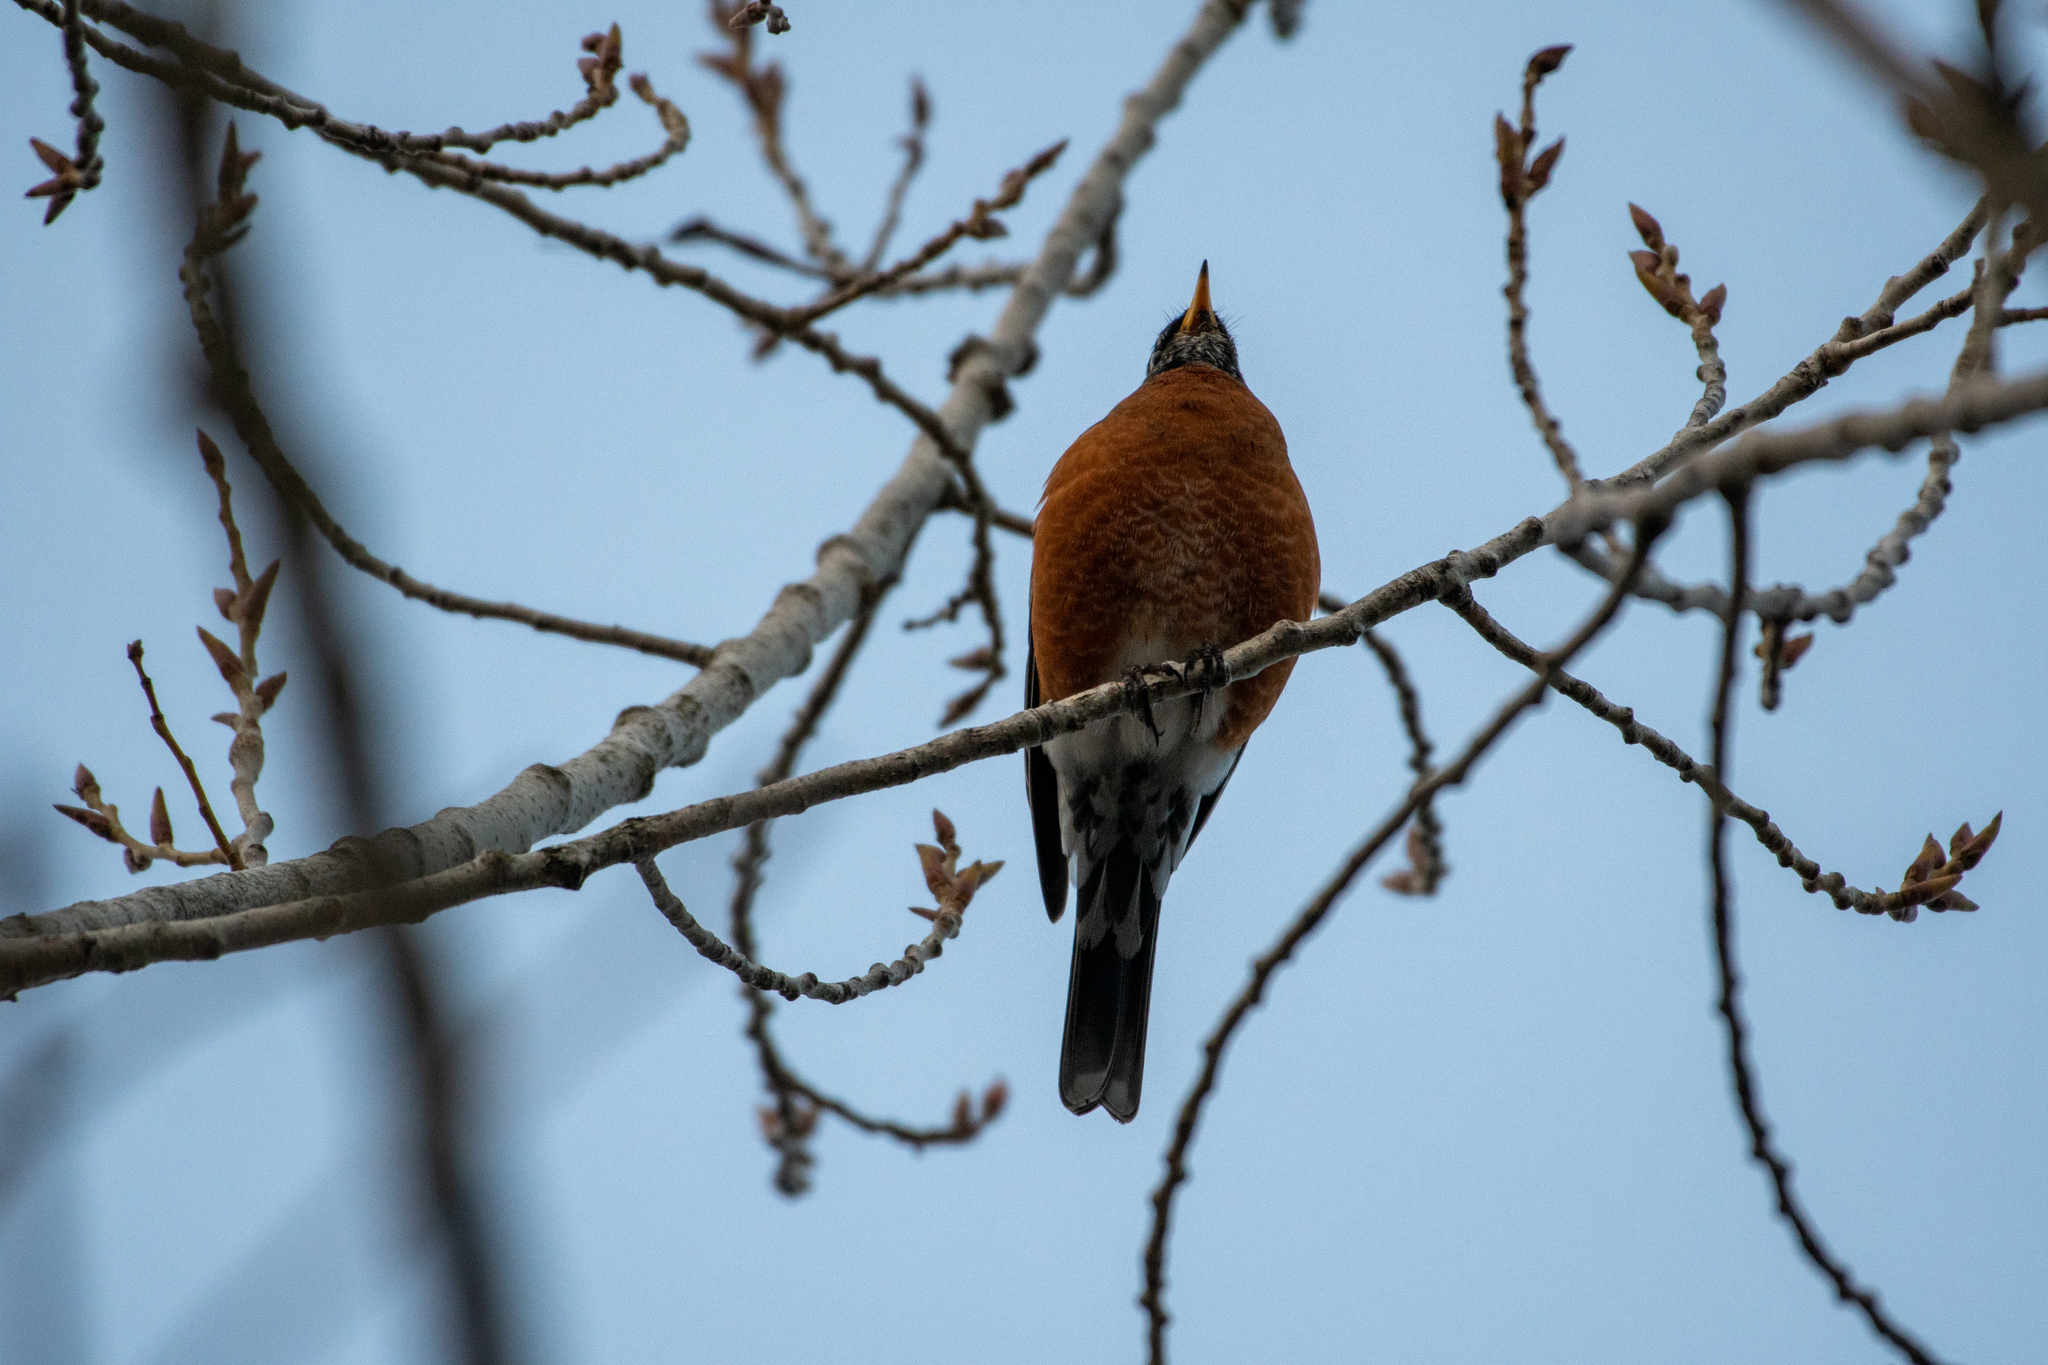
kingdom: Animalia
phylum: Chordata
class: Aves
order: Passeriformes
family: Turdidae
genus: Turdus
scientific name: Turdus migratorius
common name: American robin
